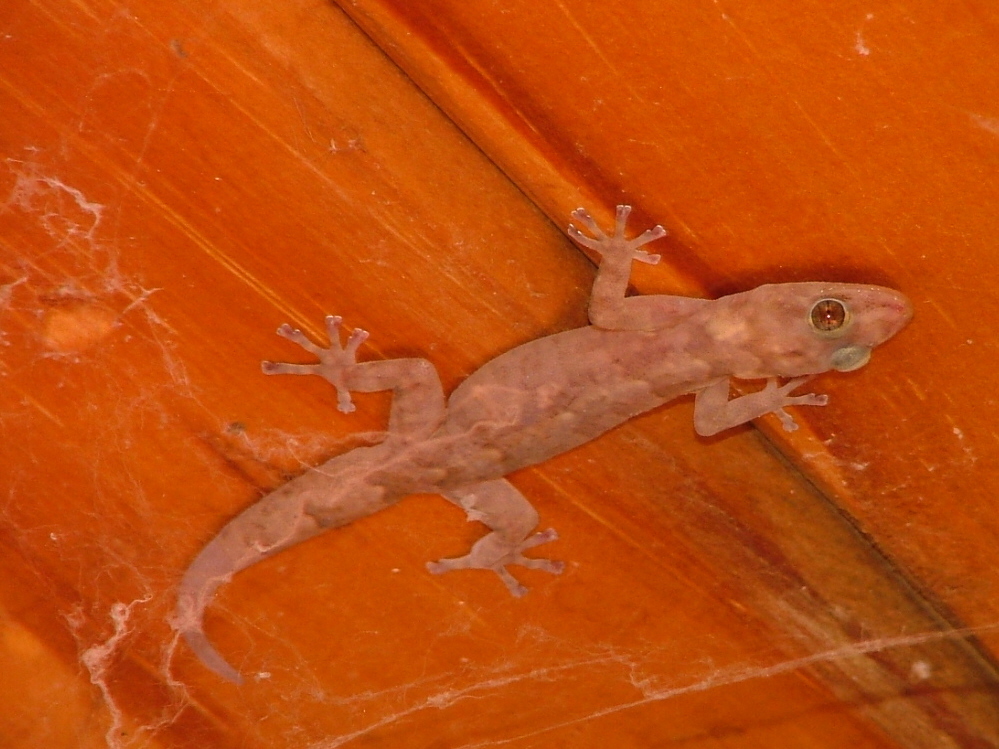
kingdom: Animalia
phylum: Chordata
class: Squamata
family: Gekkonidae
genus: Hemidactylus
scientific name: Hemidactylus mabouia
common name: House gecko
